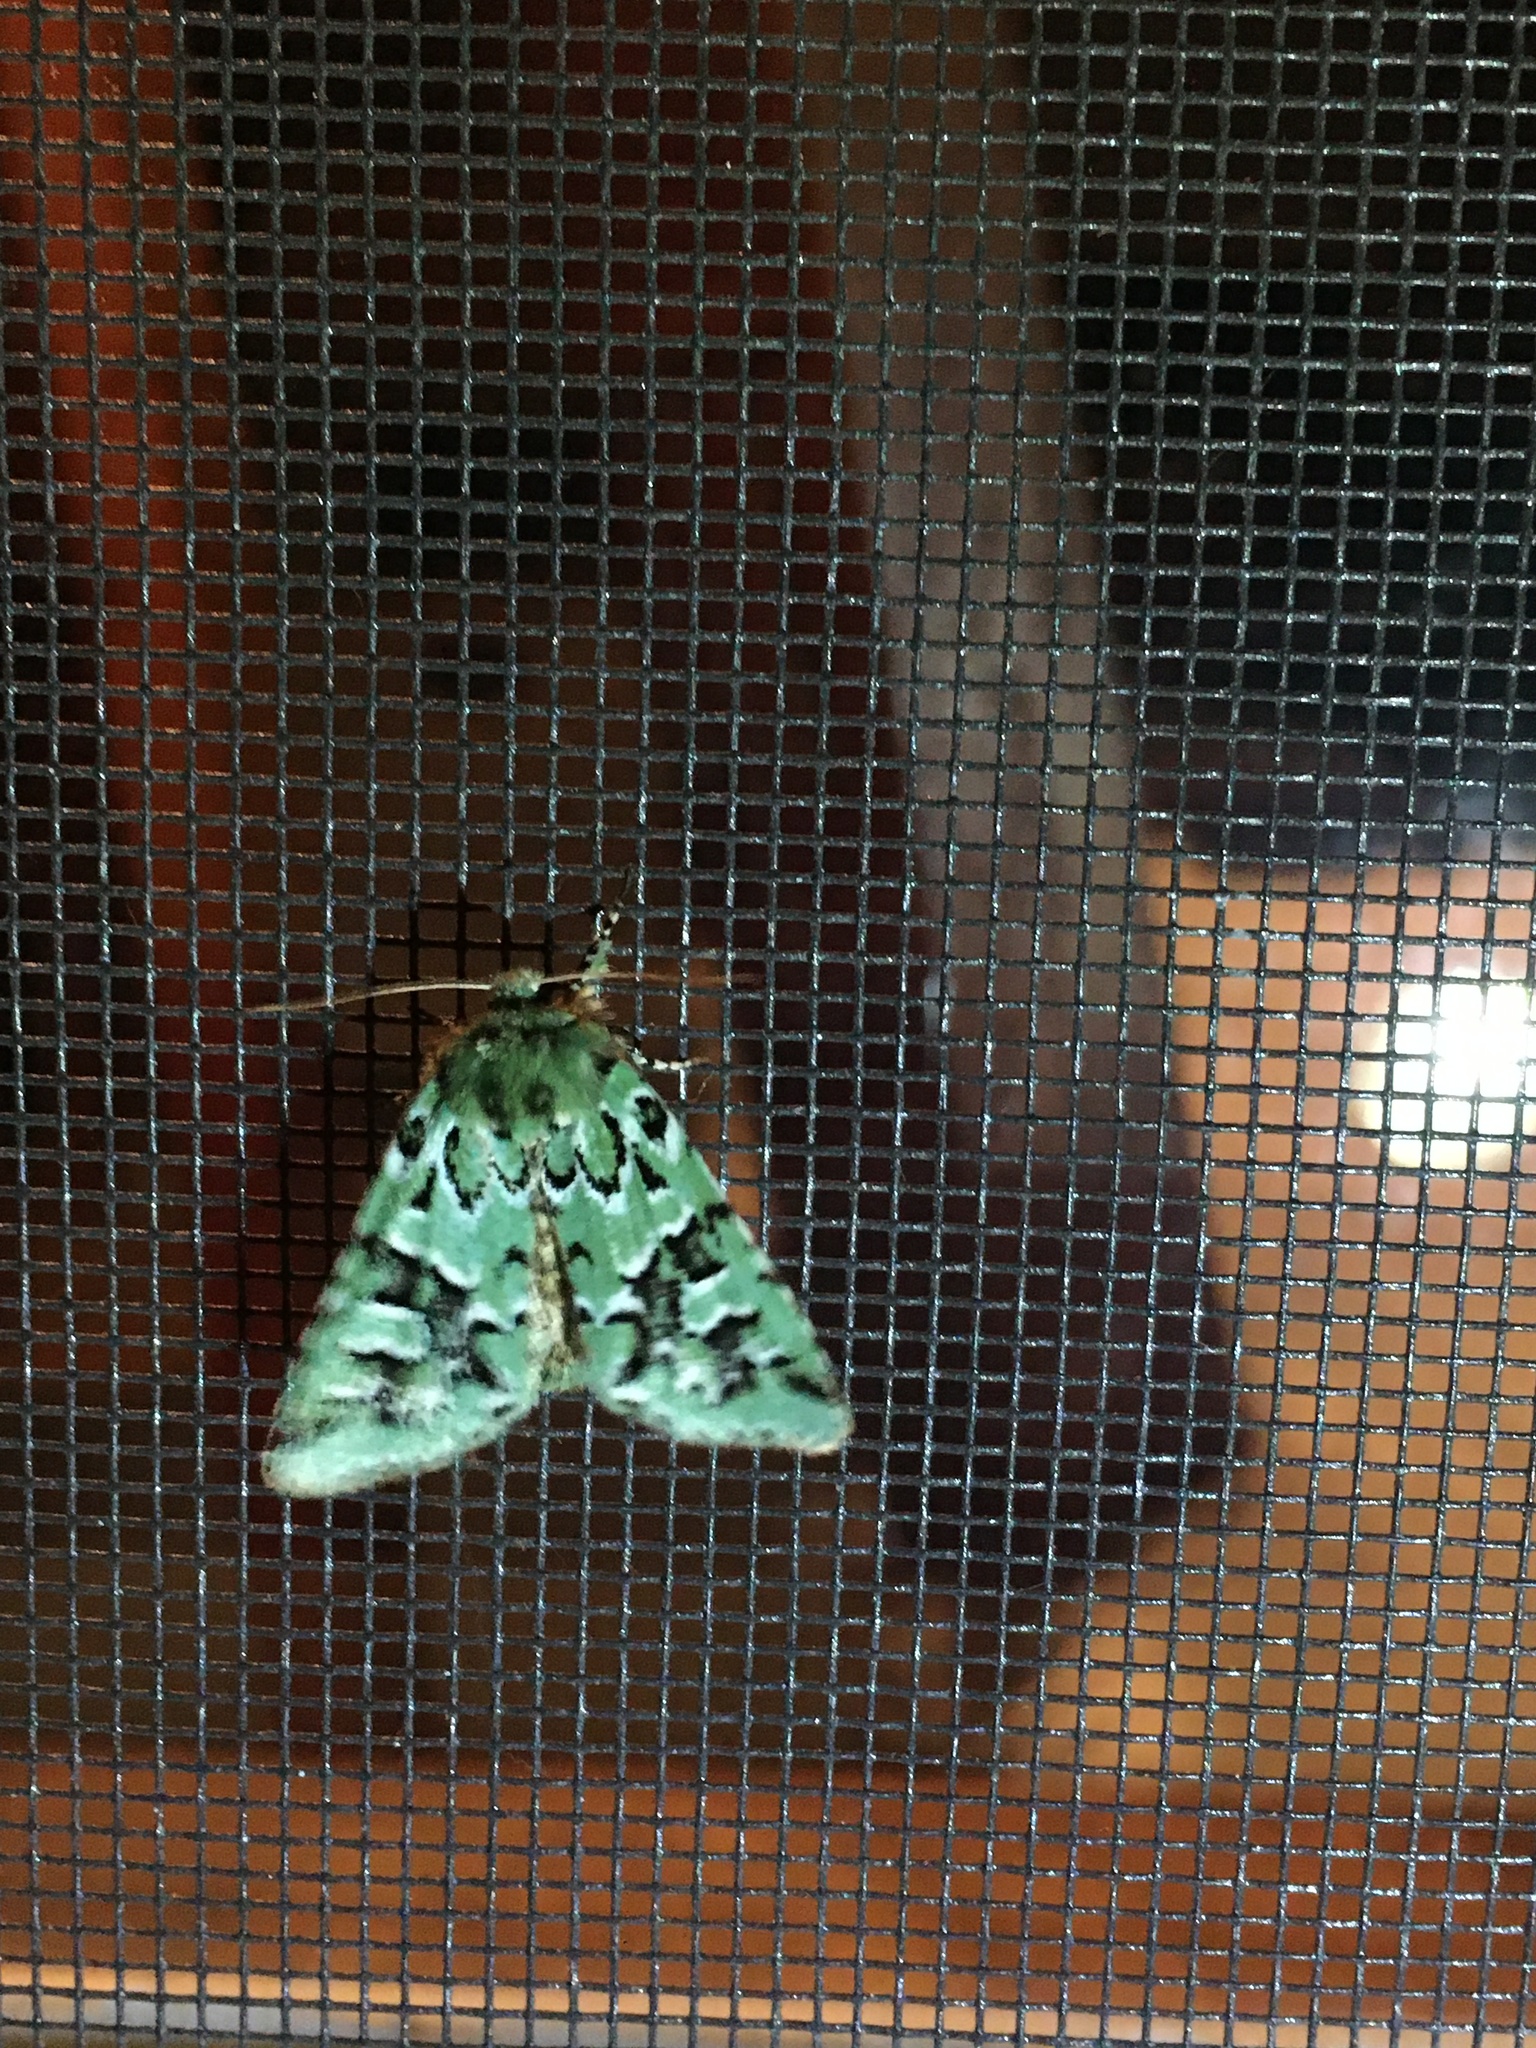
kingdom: Animalia
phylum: Arthropoda
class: Insecta
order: Lepidoptera
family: Noctuidae
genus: Feralia
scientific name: Feralia comstocki
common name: Comstock's sallow
